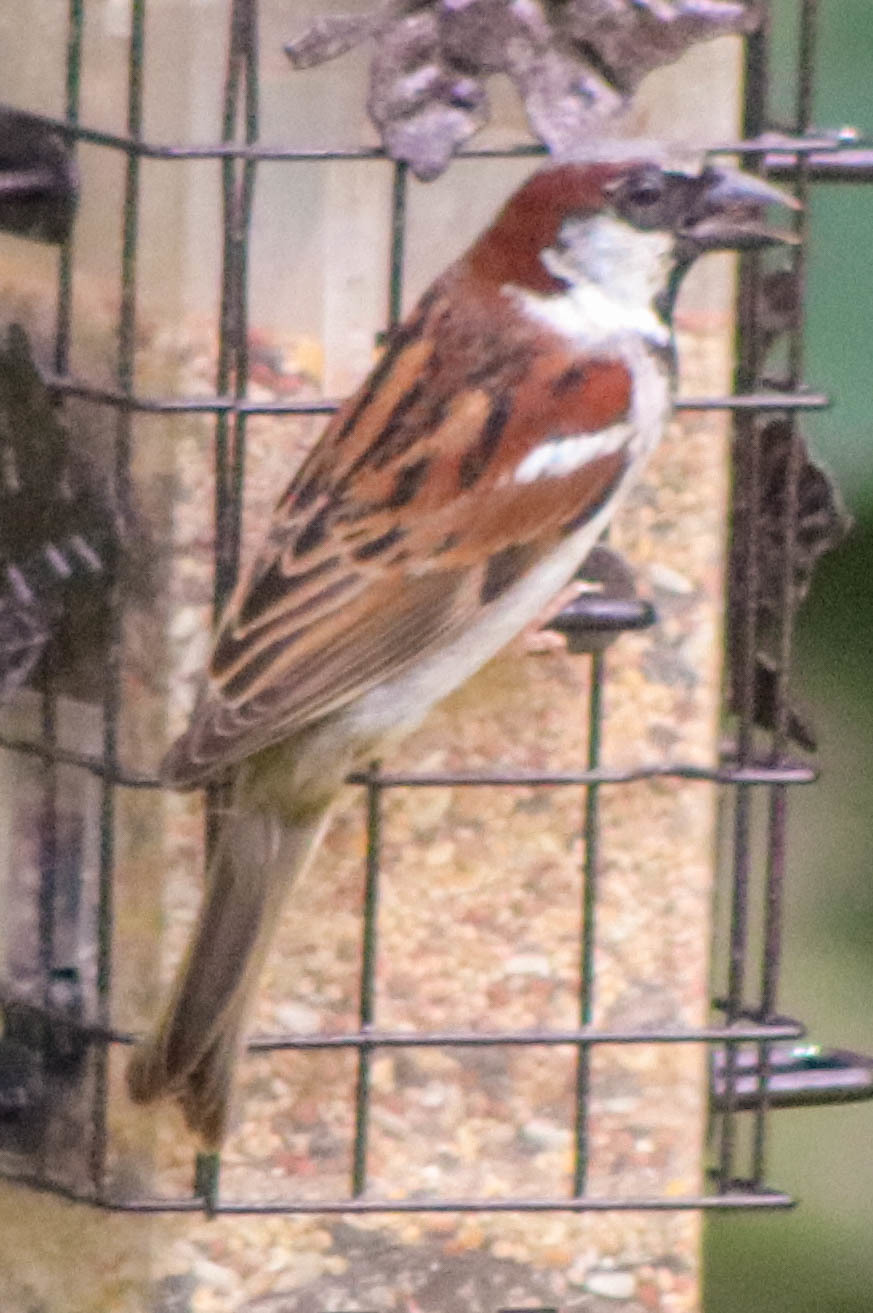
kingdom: Animalia
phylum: Chordata
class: Aves
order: Passeriformes
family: Passeridae
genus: Passer
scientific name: Passer domesticus
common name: House sparrow
